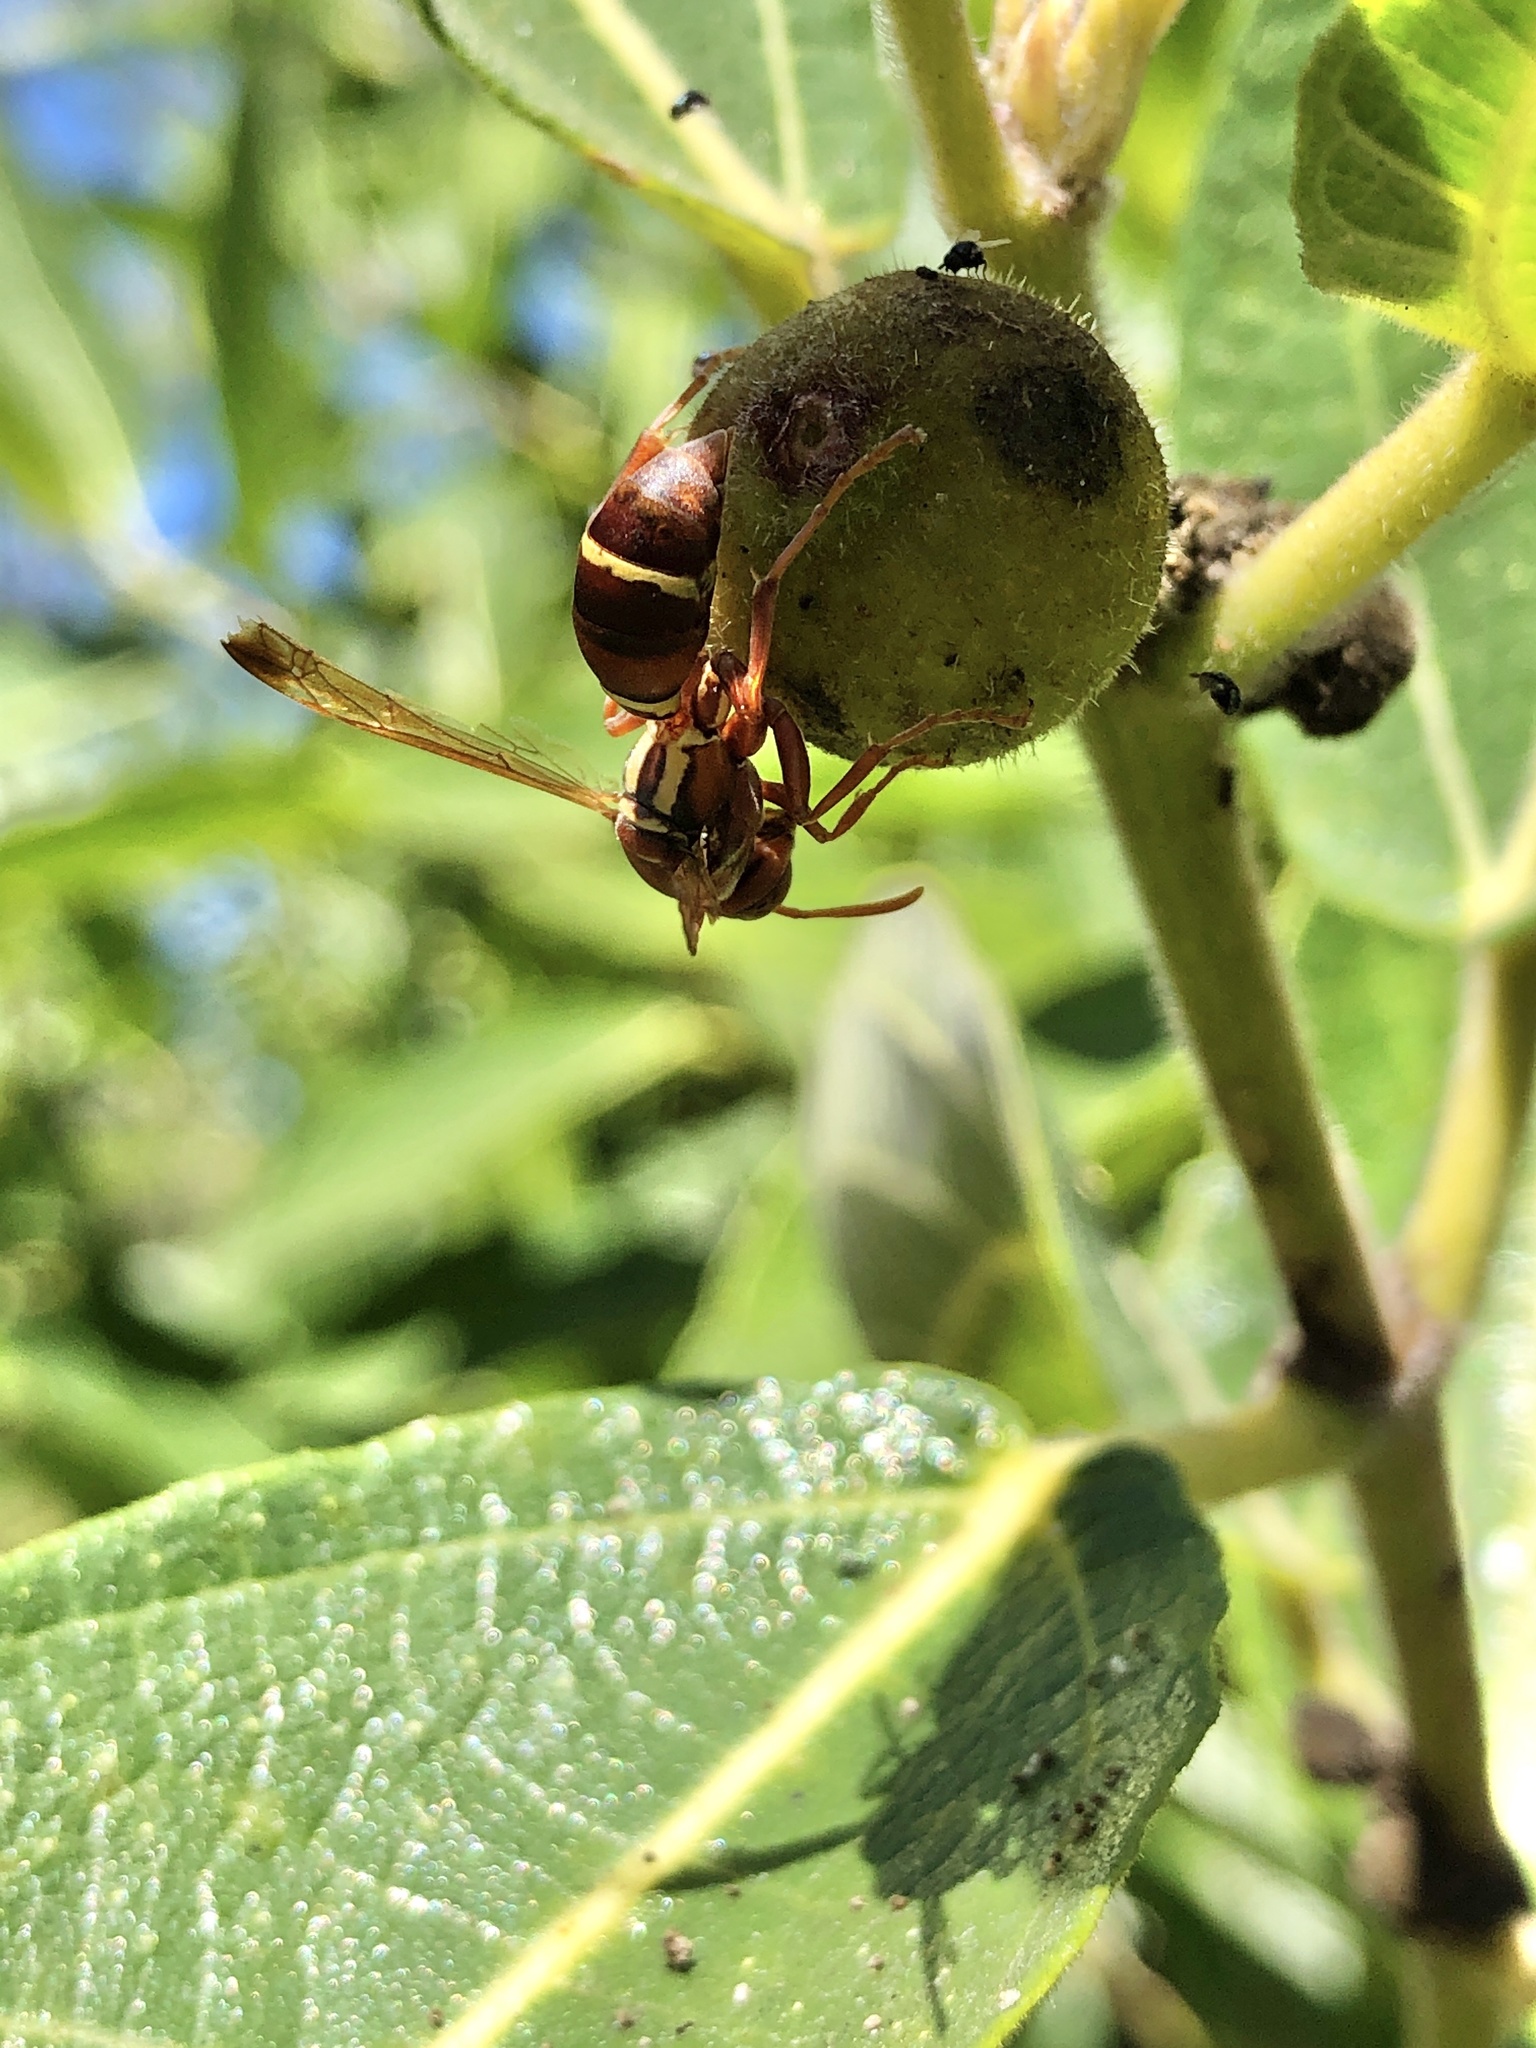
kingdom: Animalia
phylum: Arthropoda
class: Insecta
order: Hymenoptera
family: Eumenidae
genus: Polistes
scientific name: Polistes stigma
